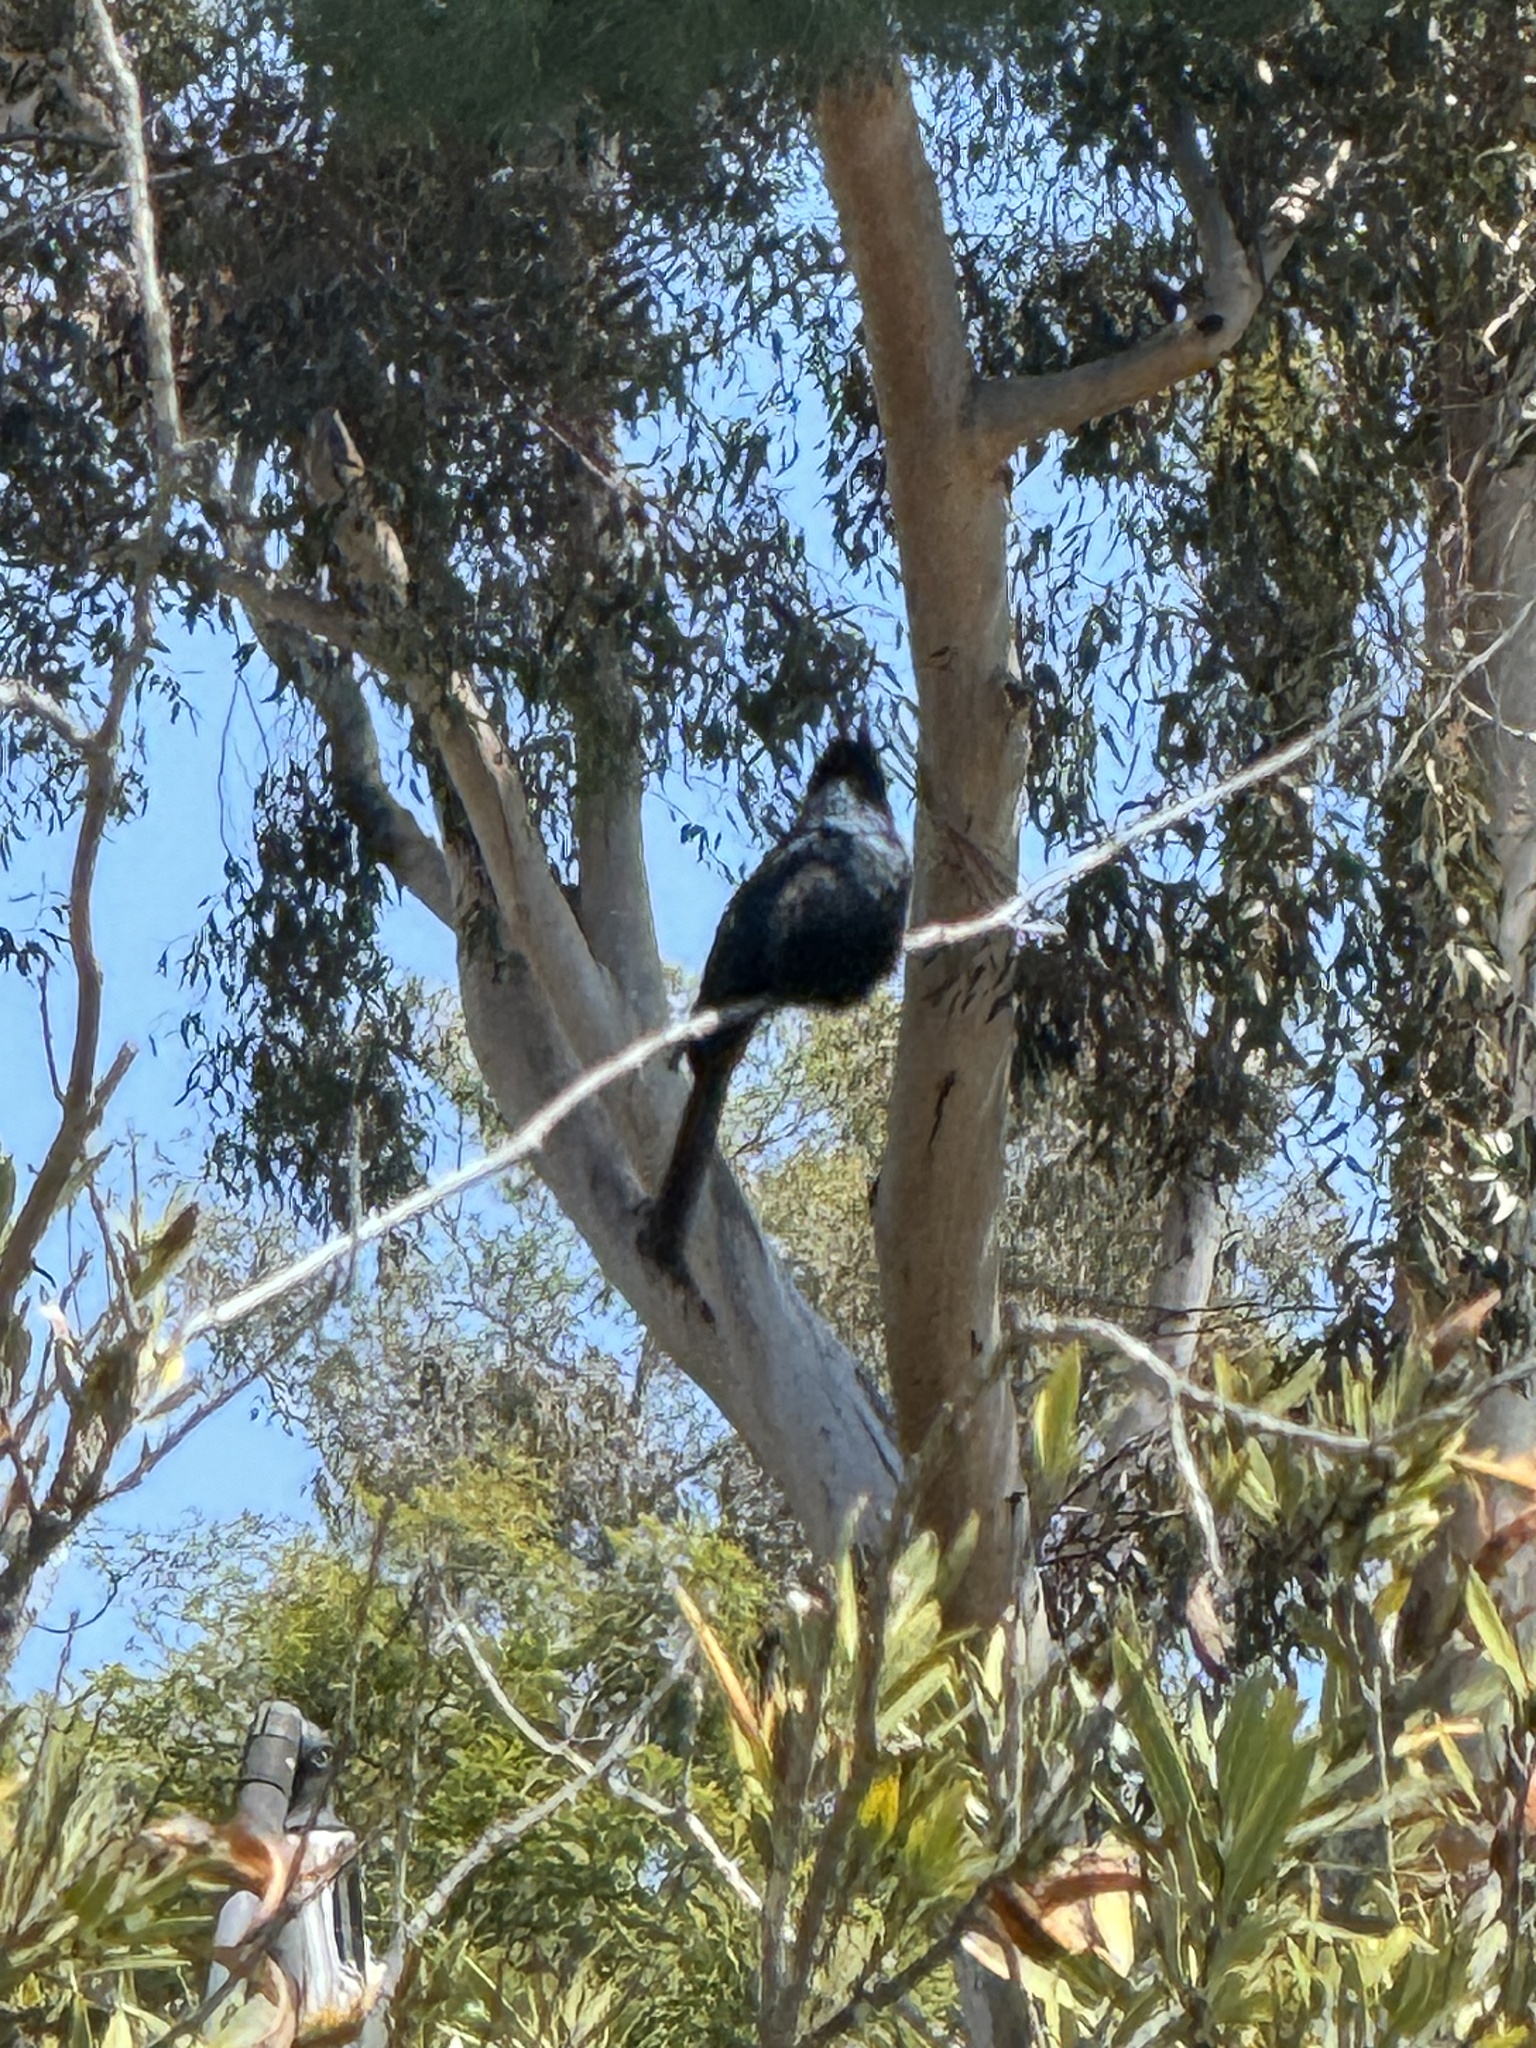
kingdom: Animalia
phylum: Chordata
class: Aves
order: Passeriformes
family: Ptilogonatidae
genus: Phainopepla
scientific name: Phainopepla nitens
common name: Phainopepla
